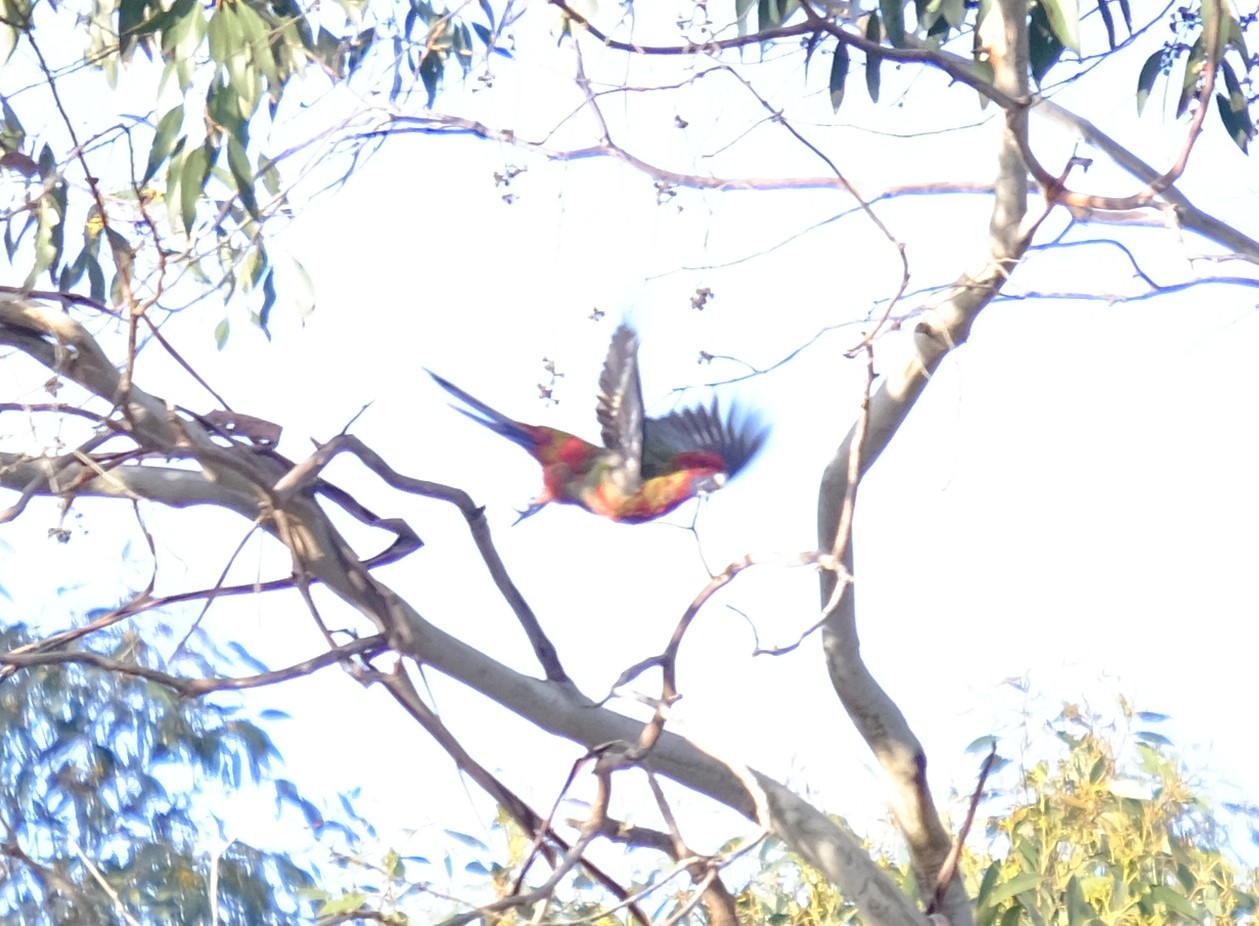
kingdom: Animalia
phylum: Chordata
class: Aves
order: Psittaciformes
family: Psittacidae
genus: Platycercus
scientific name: Platycercus elegans
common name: Crimson rosella
